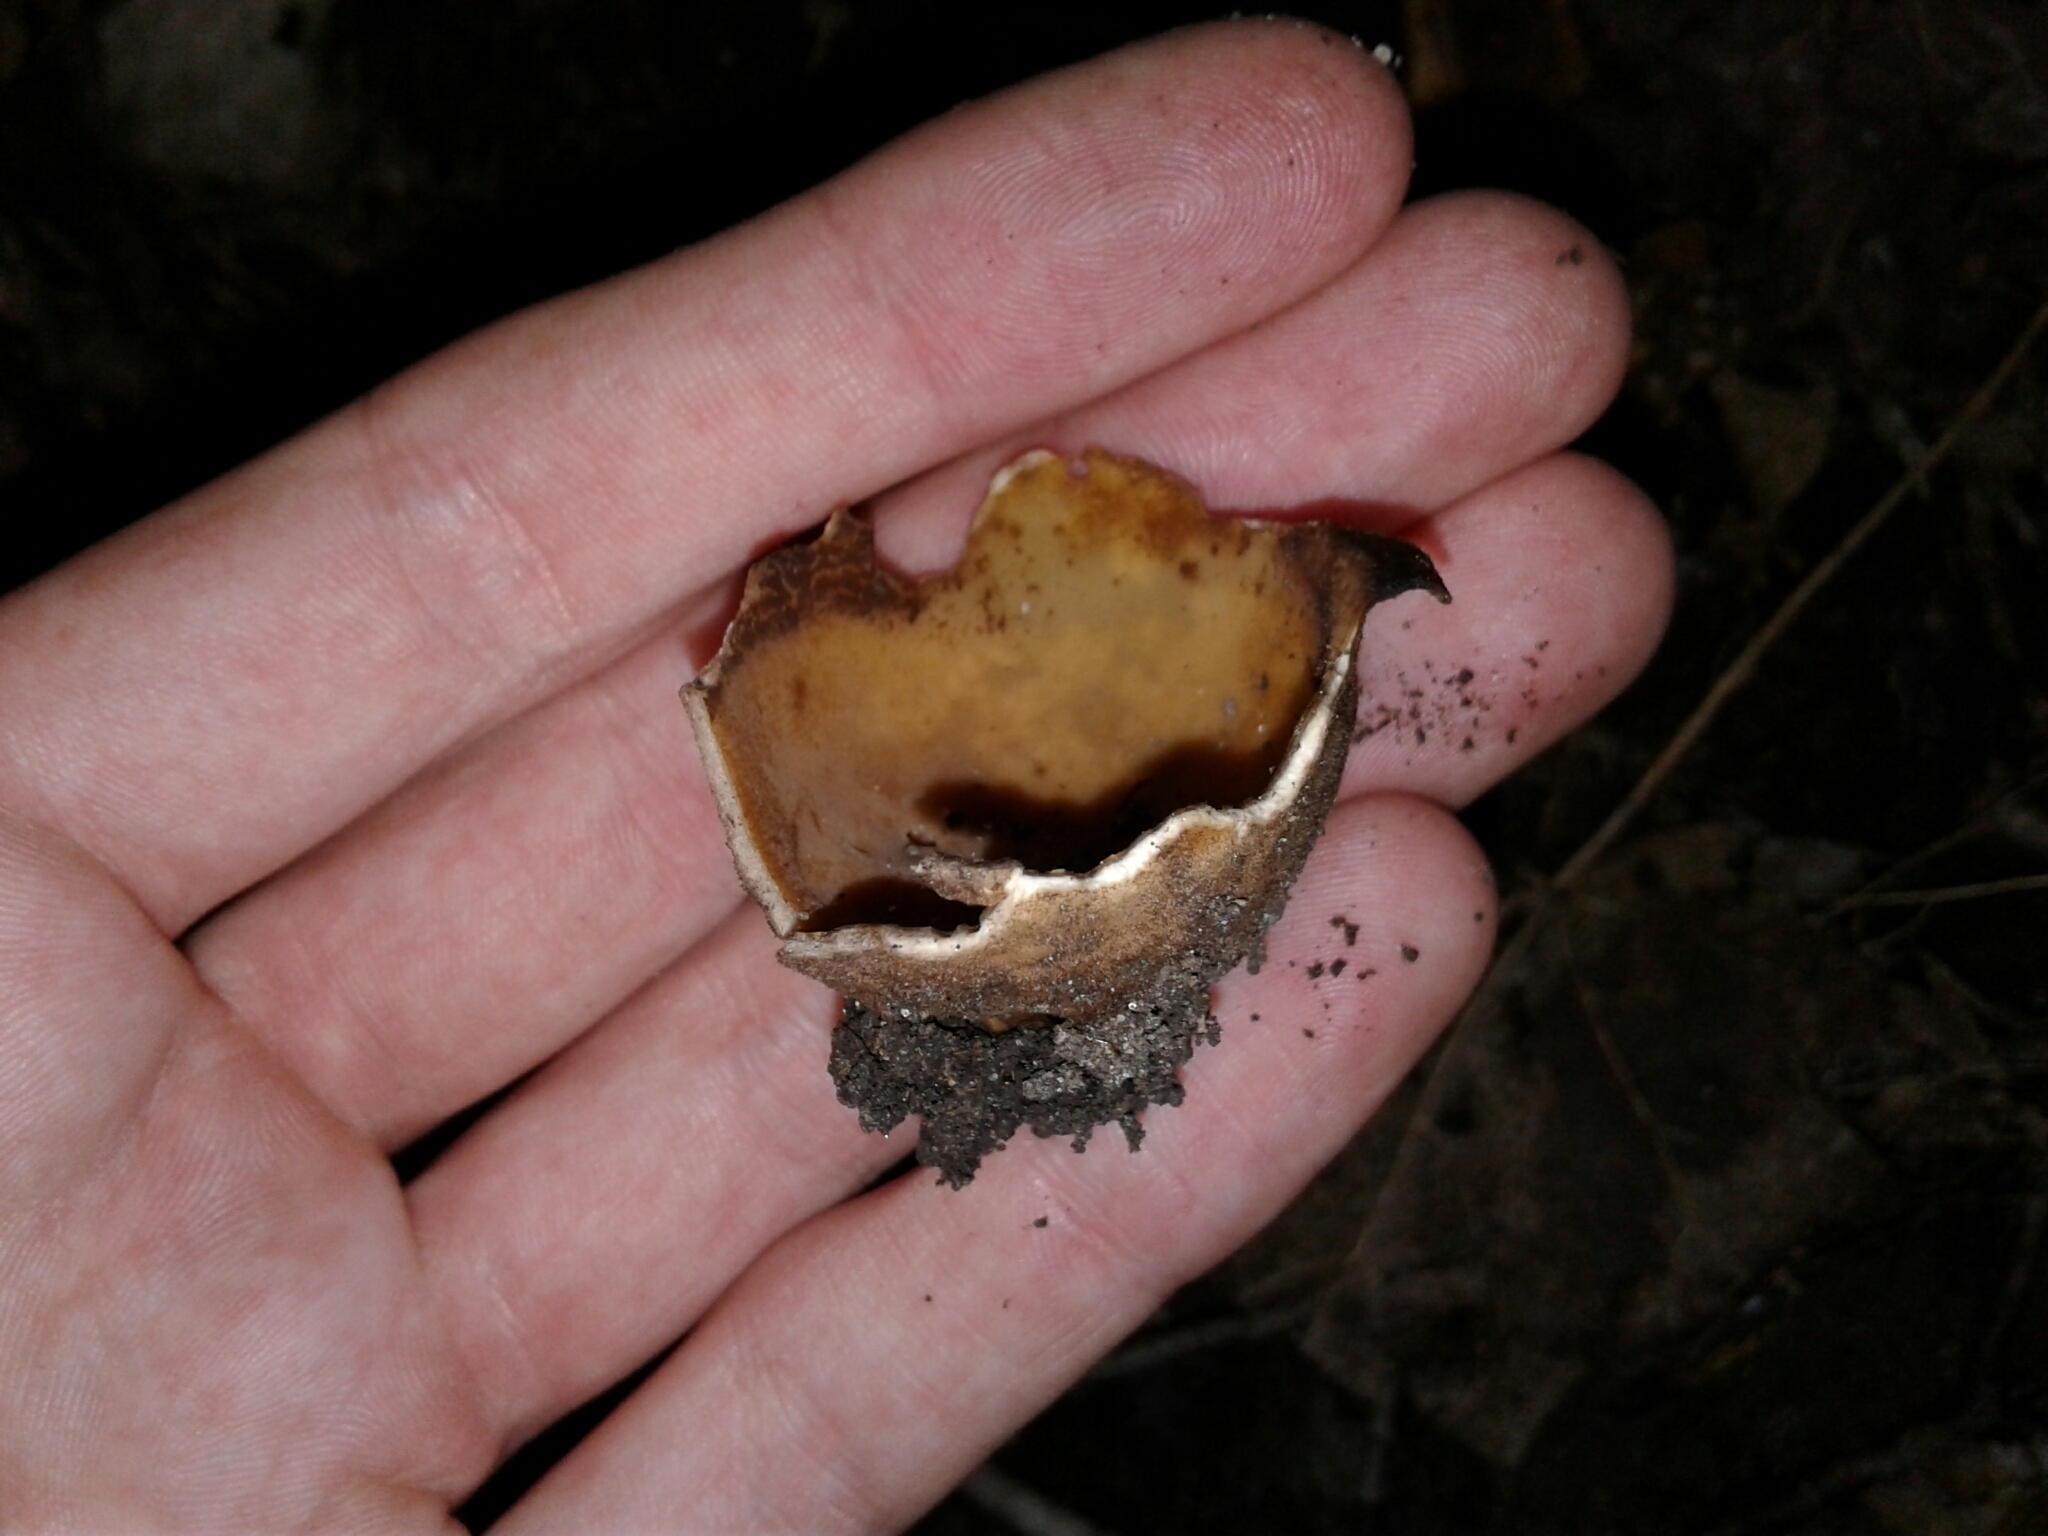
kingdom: Fungi
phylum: Ascomycota
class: Pezizomycetes
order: Pezizales
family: Pyronemataceae
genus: Jafnea
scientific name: Jafnea semitosta
